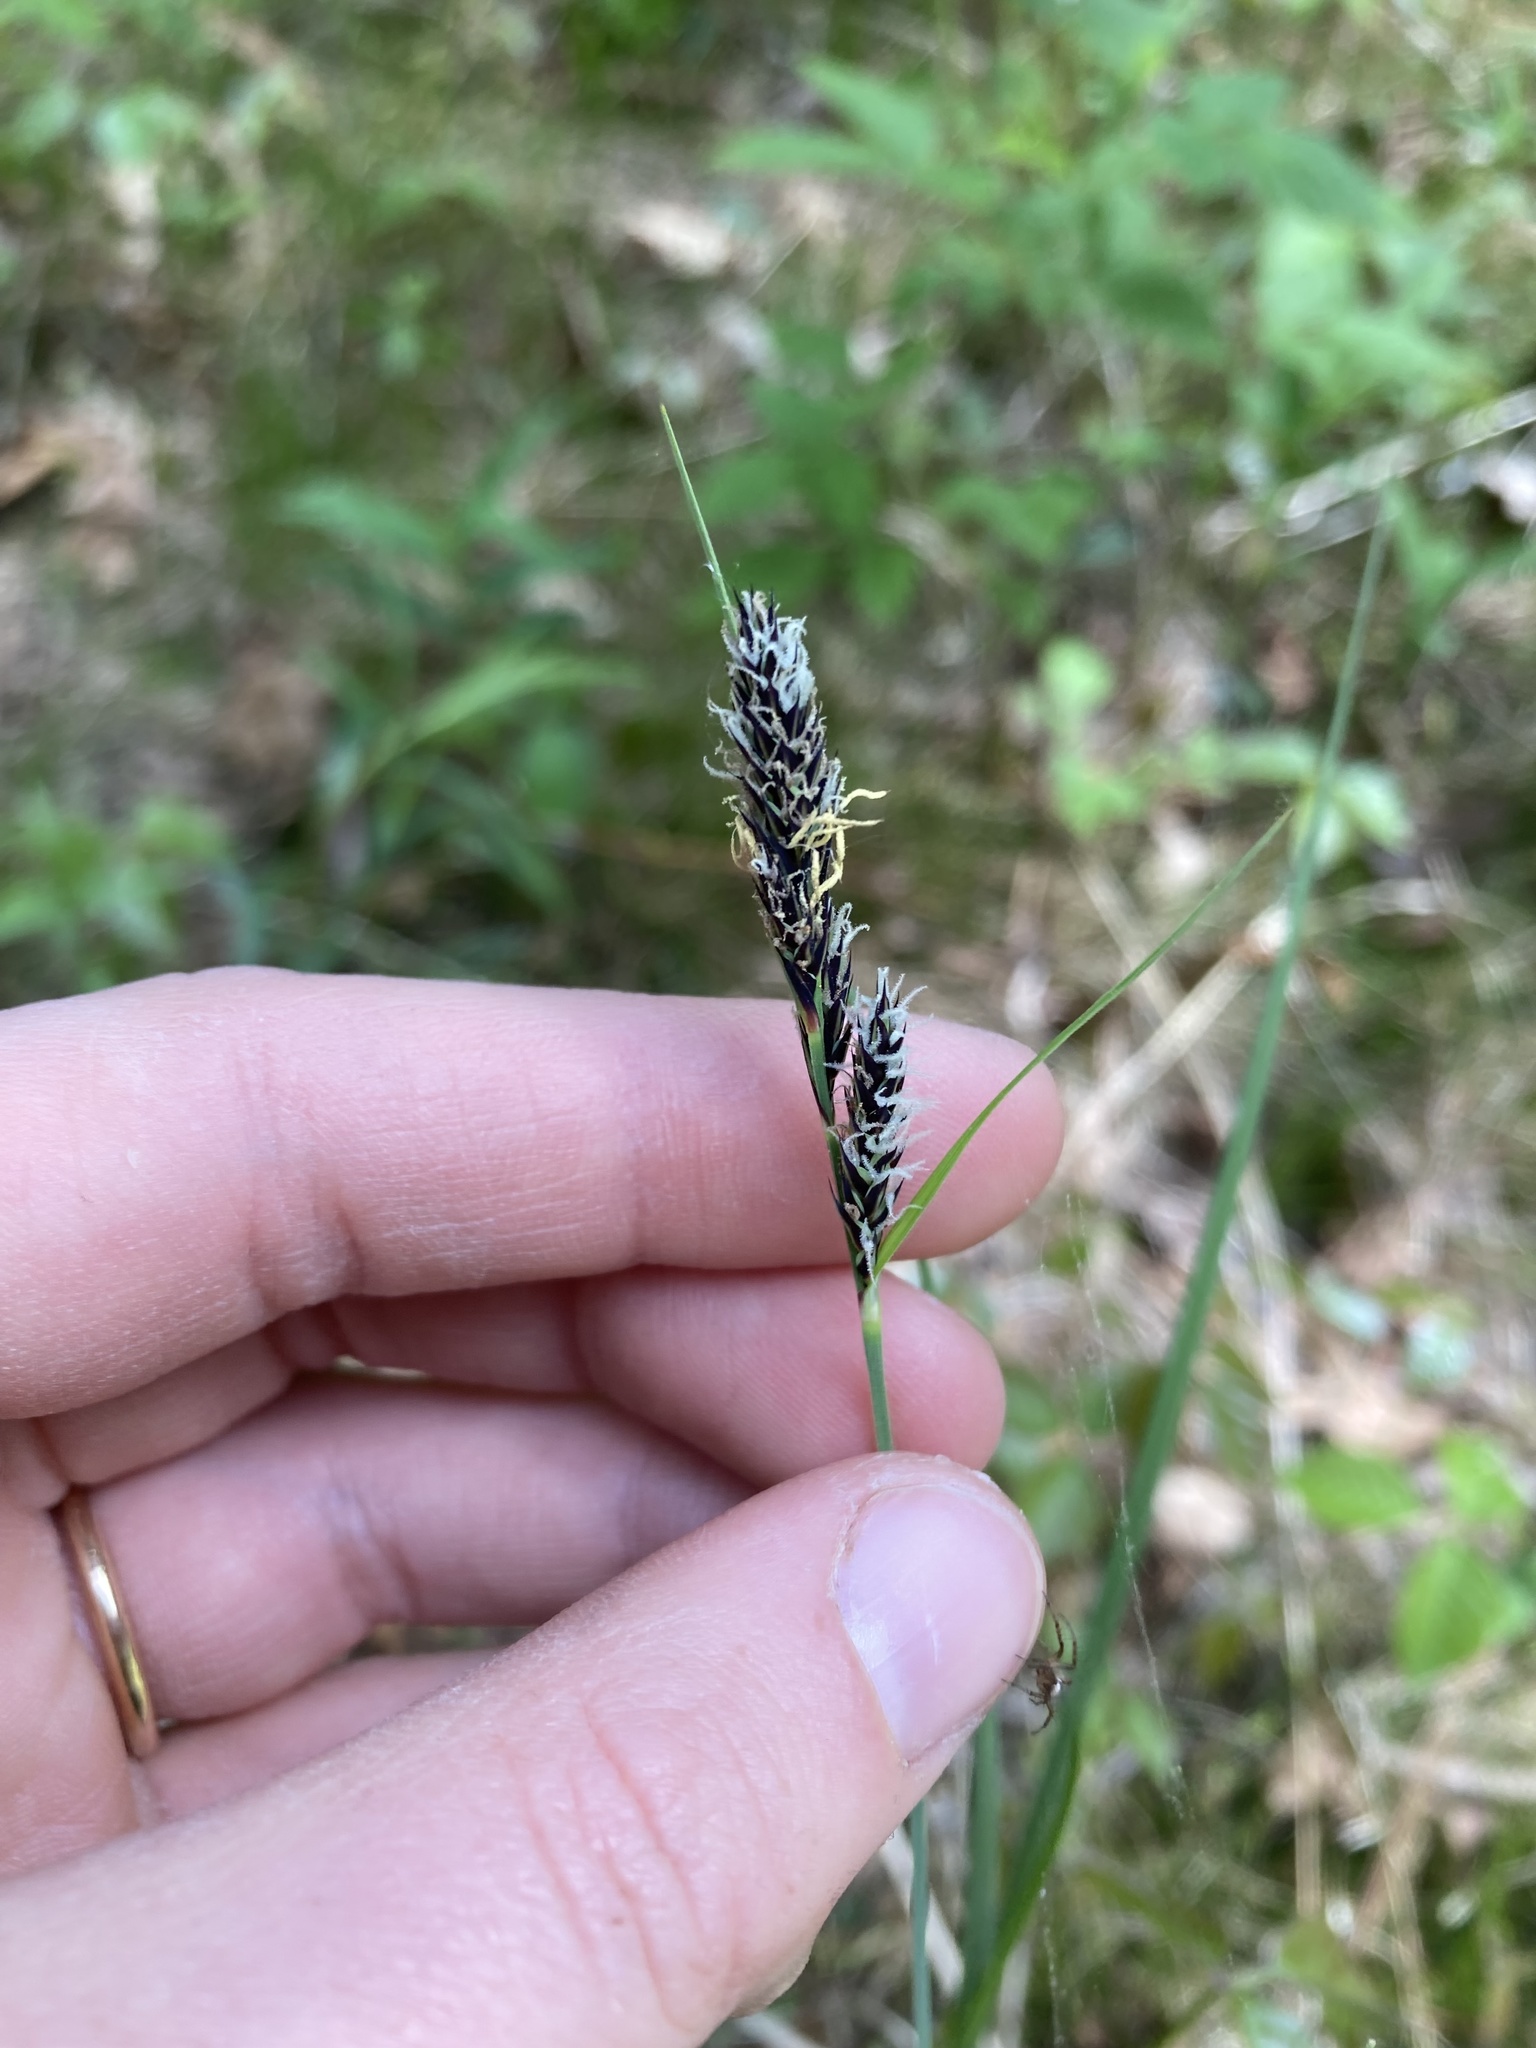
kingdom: Plantae
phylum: Tracheophyta
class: Liliopsida
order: Poales
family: Cyperaceae
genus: Carex
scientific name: Carex buxbaumii
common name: Club sedge
